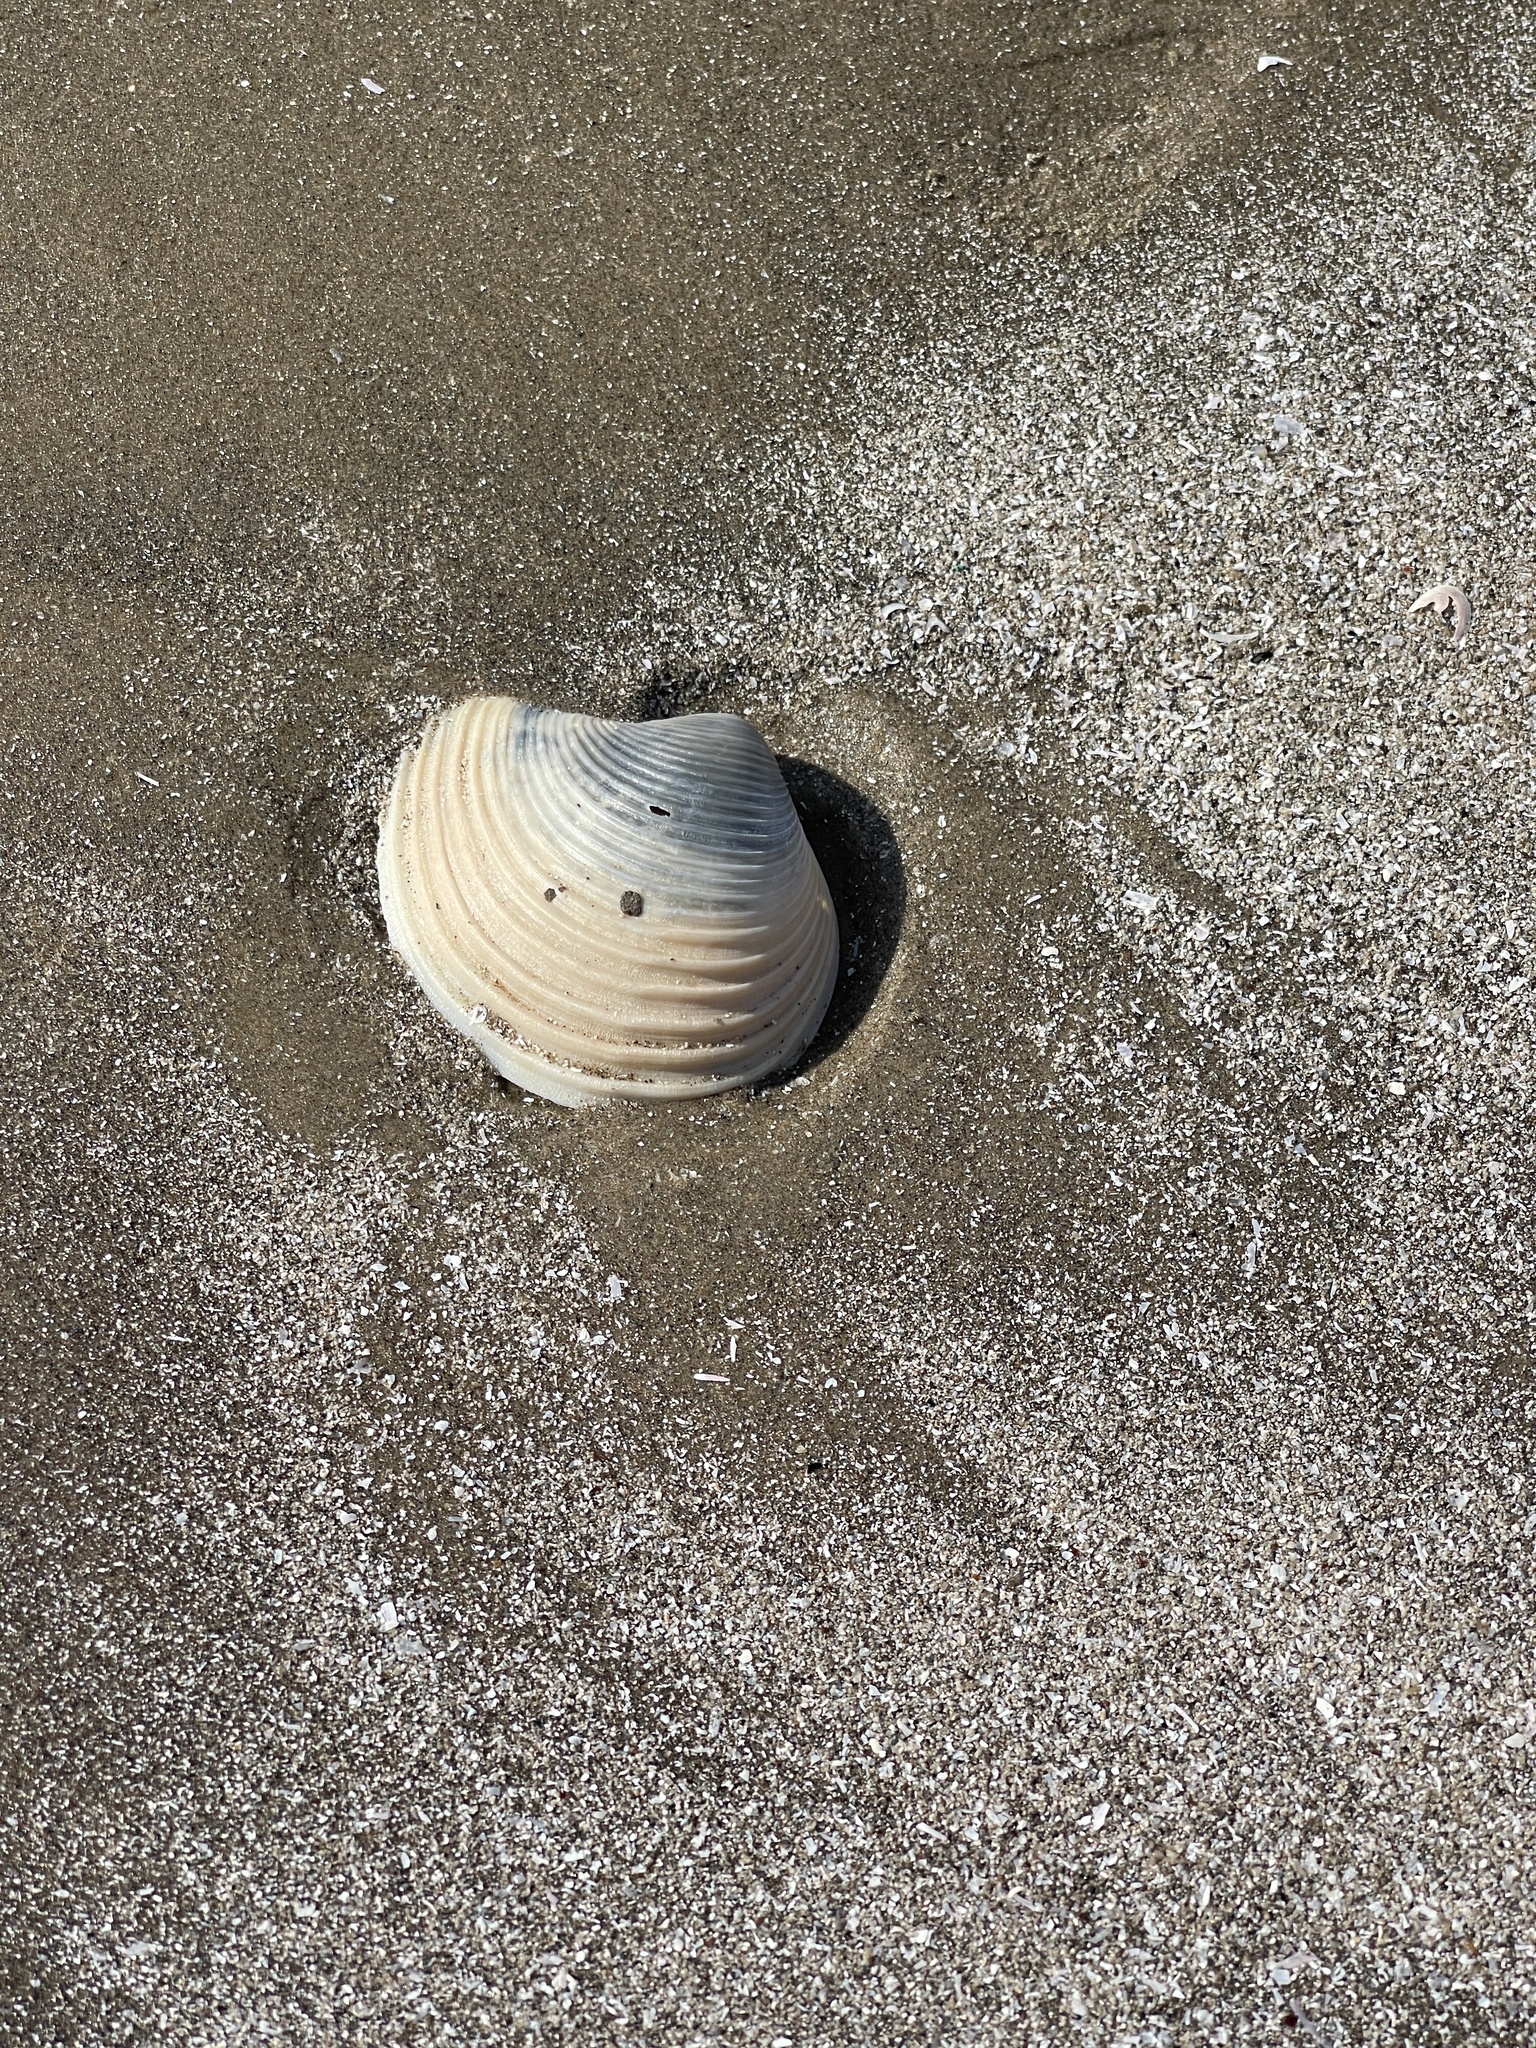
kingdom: Animalia
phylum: Mollusca
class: Bivalvia
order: Venerida
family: Anatinellidae
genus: Raeta
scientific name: Raeta plicatella
